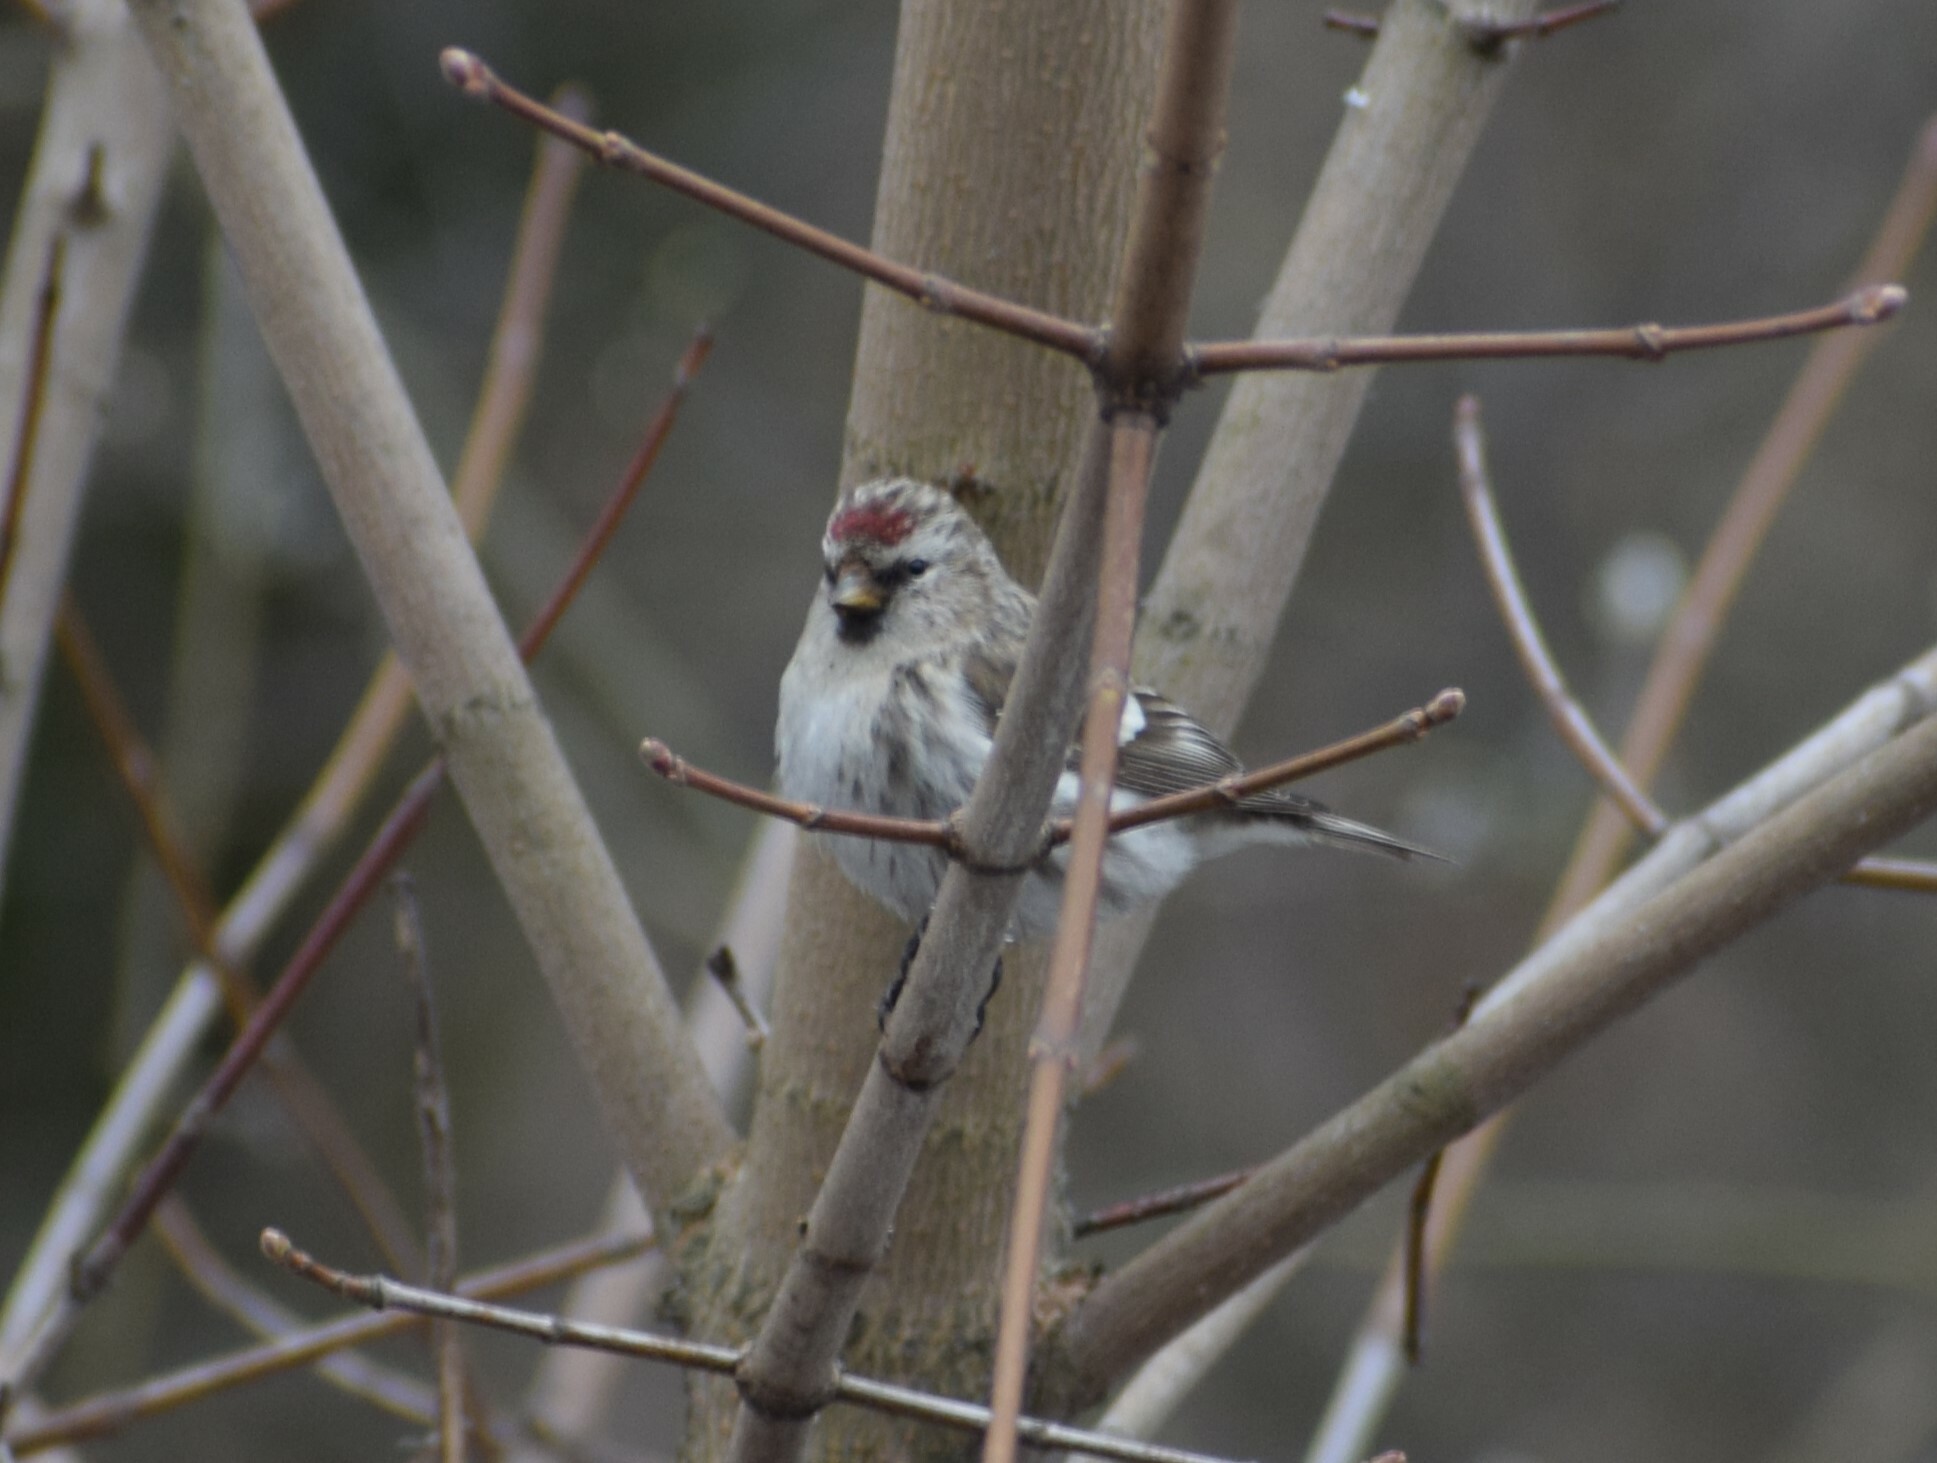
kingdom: Animalia
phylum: Chordata
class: Aves
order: Passeriformes
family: Fringillidae
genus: Acanthis
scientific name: Acanthis flammea
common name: Common redpoll
